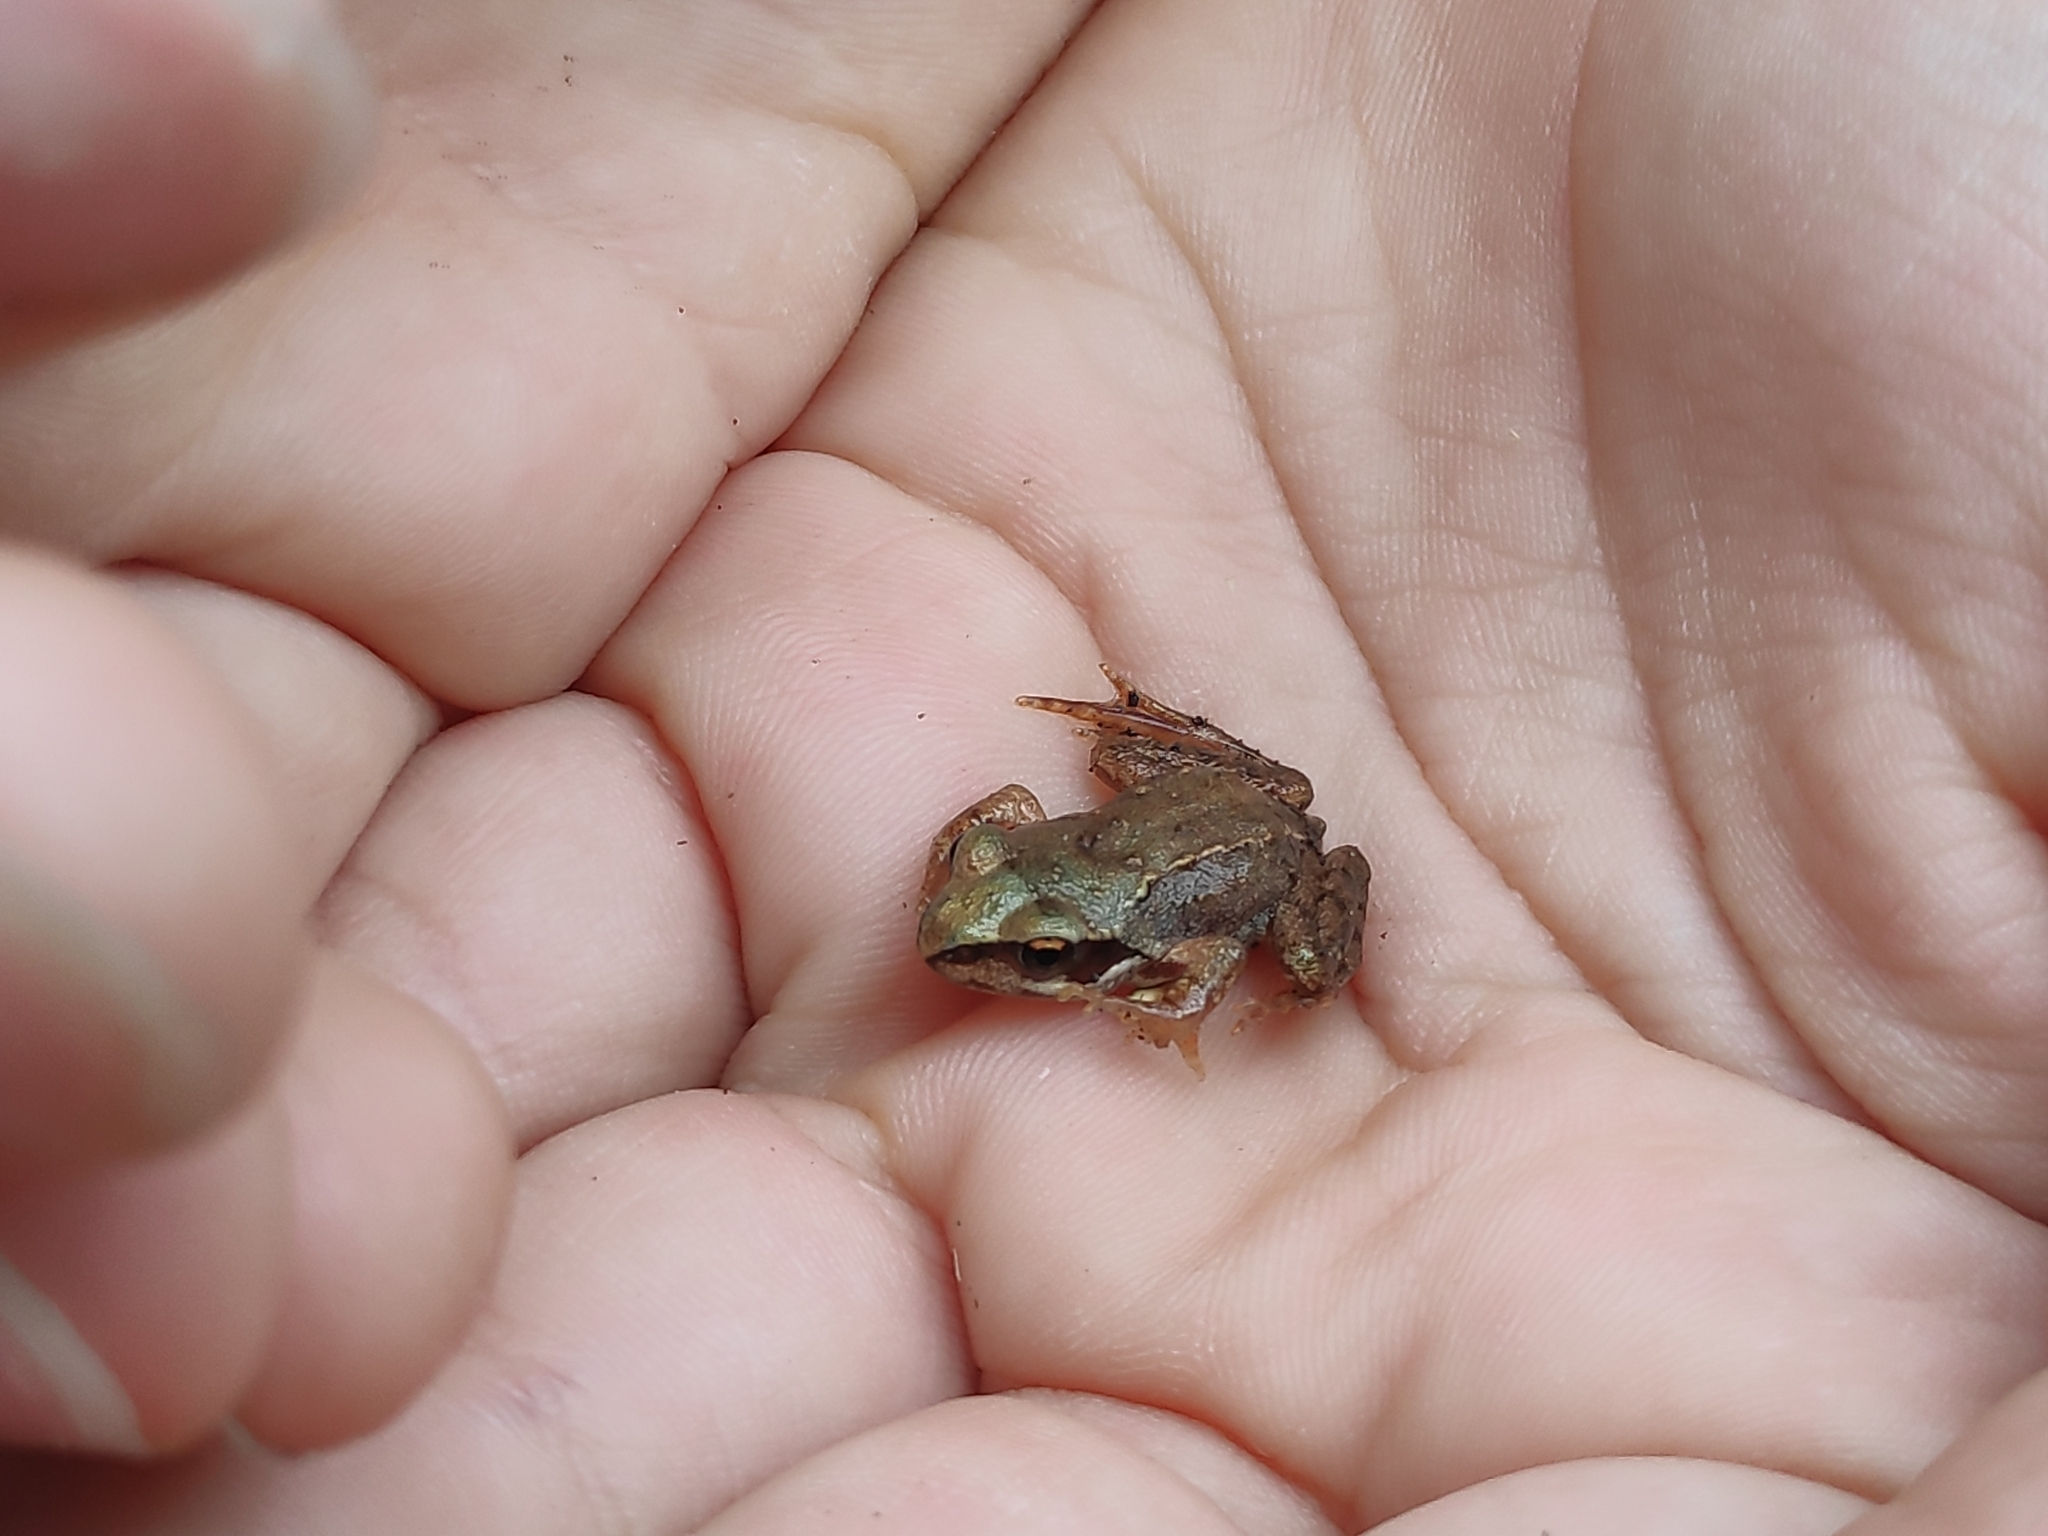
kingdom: Animalia
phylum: Chordata
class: Amphibia
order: Anura
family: Ranidae
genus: Rana
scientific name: Rana temporaria
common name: Common frog
